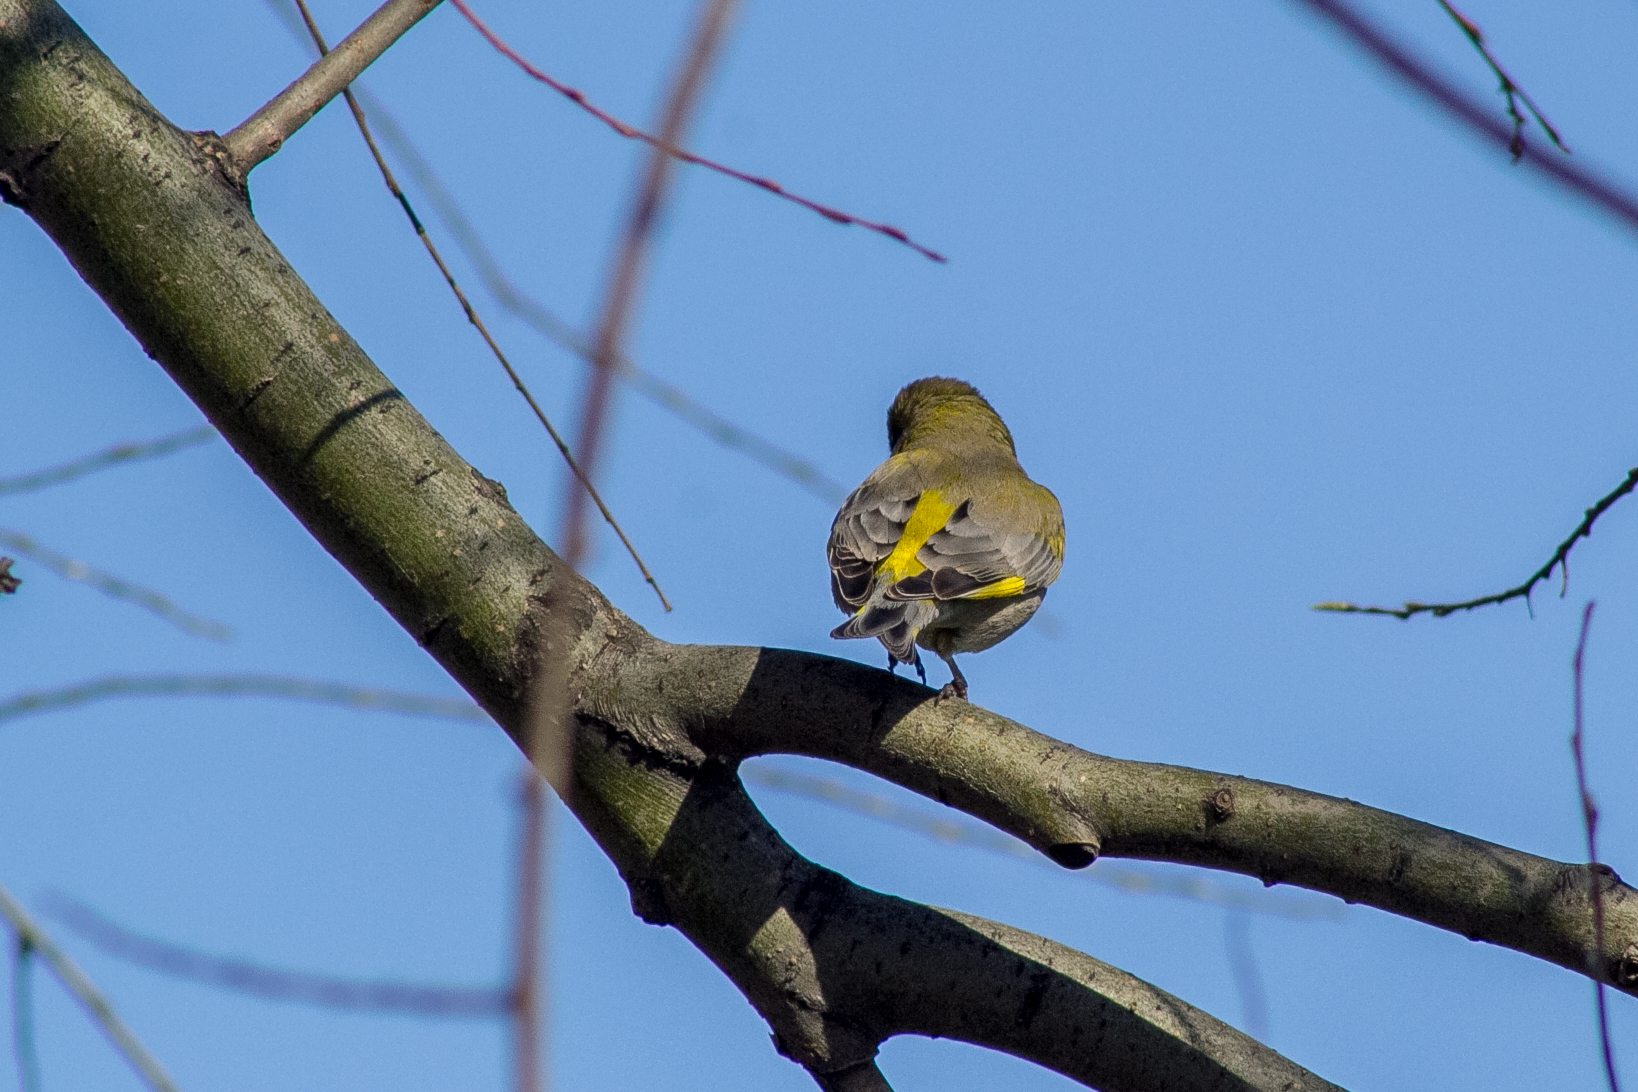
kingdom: Plantae
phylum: Tracheophyta
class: Liliopsida
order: Poales
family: Poaceae
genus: Chloris
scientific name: Chloris chloris
